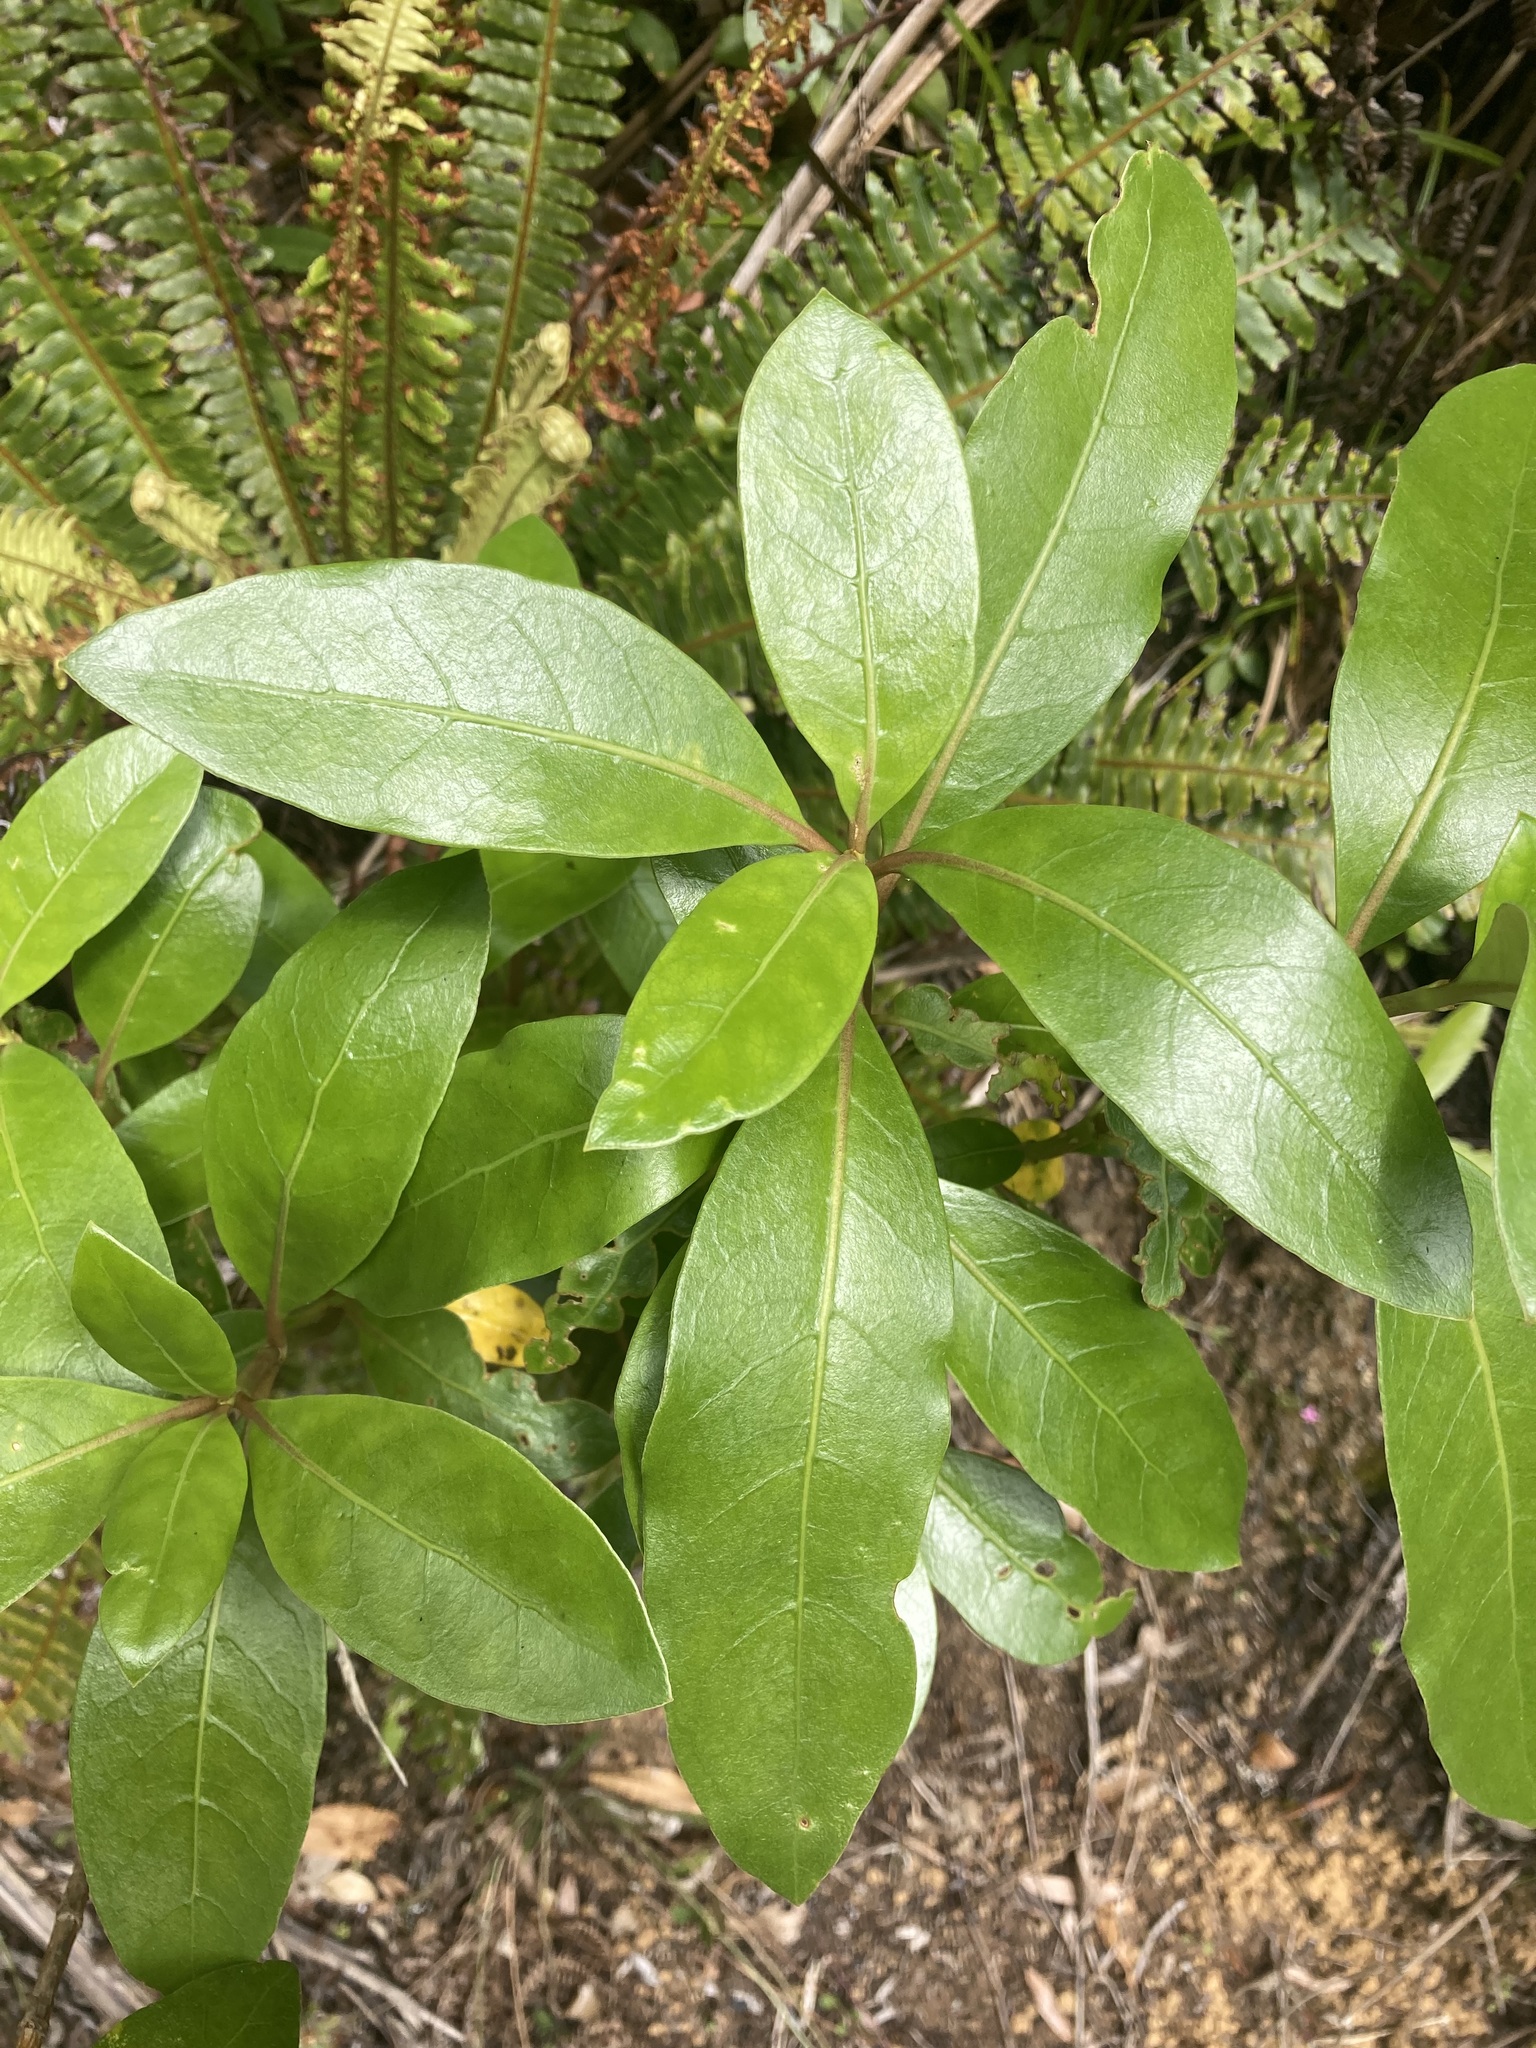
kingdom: Plantae
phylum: Tracheophyta
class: Magnoliopsida
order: Gentianales
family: Rubiaceae
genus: Coprosma
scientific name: Coprosma lucida
